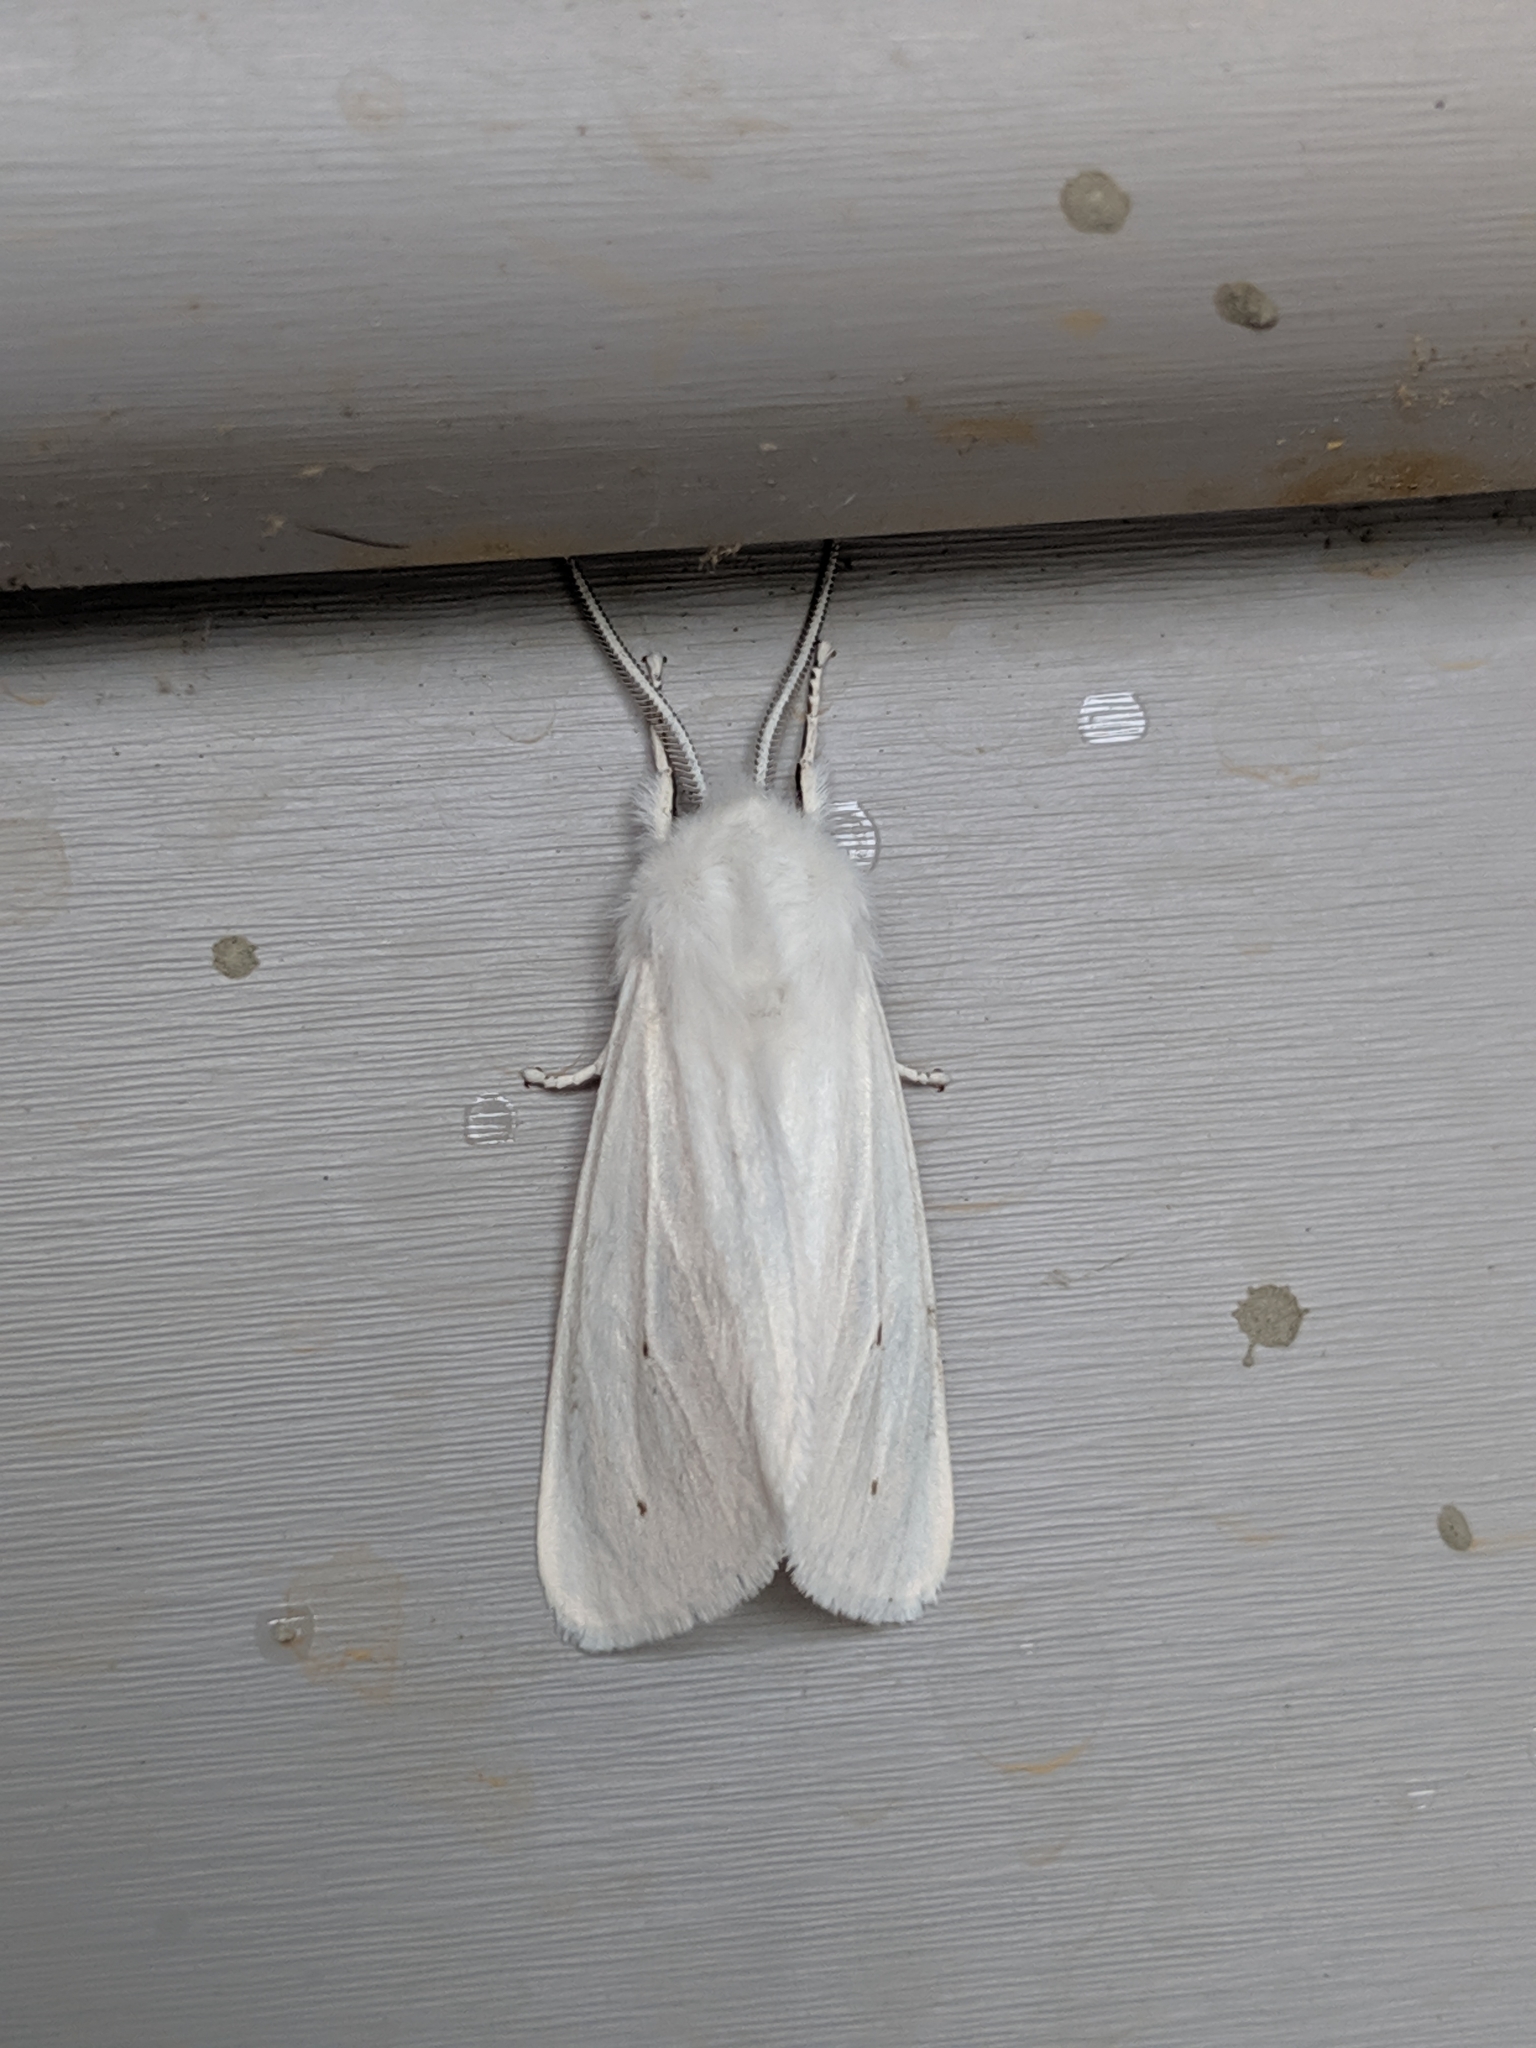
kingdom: Animalia
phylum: Arthropoda
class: Insecta
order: Lepidoptera
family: Erebidae
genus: Spilosoma
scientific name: Spilosoma congrua
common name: Agreeable tiger moth
